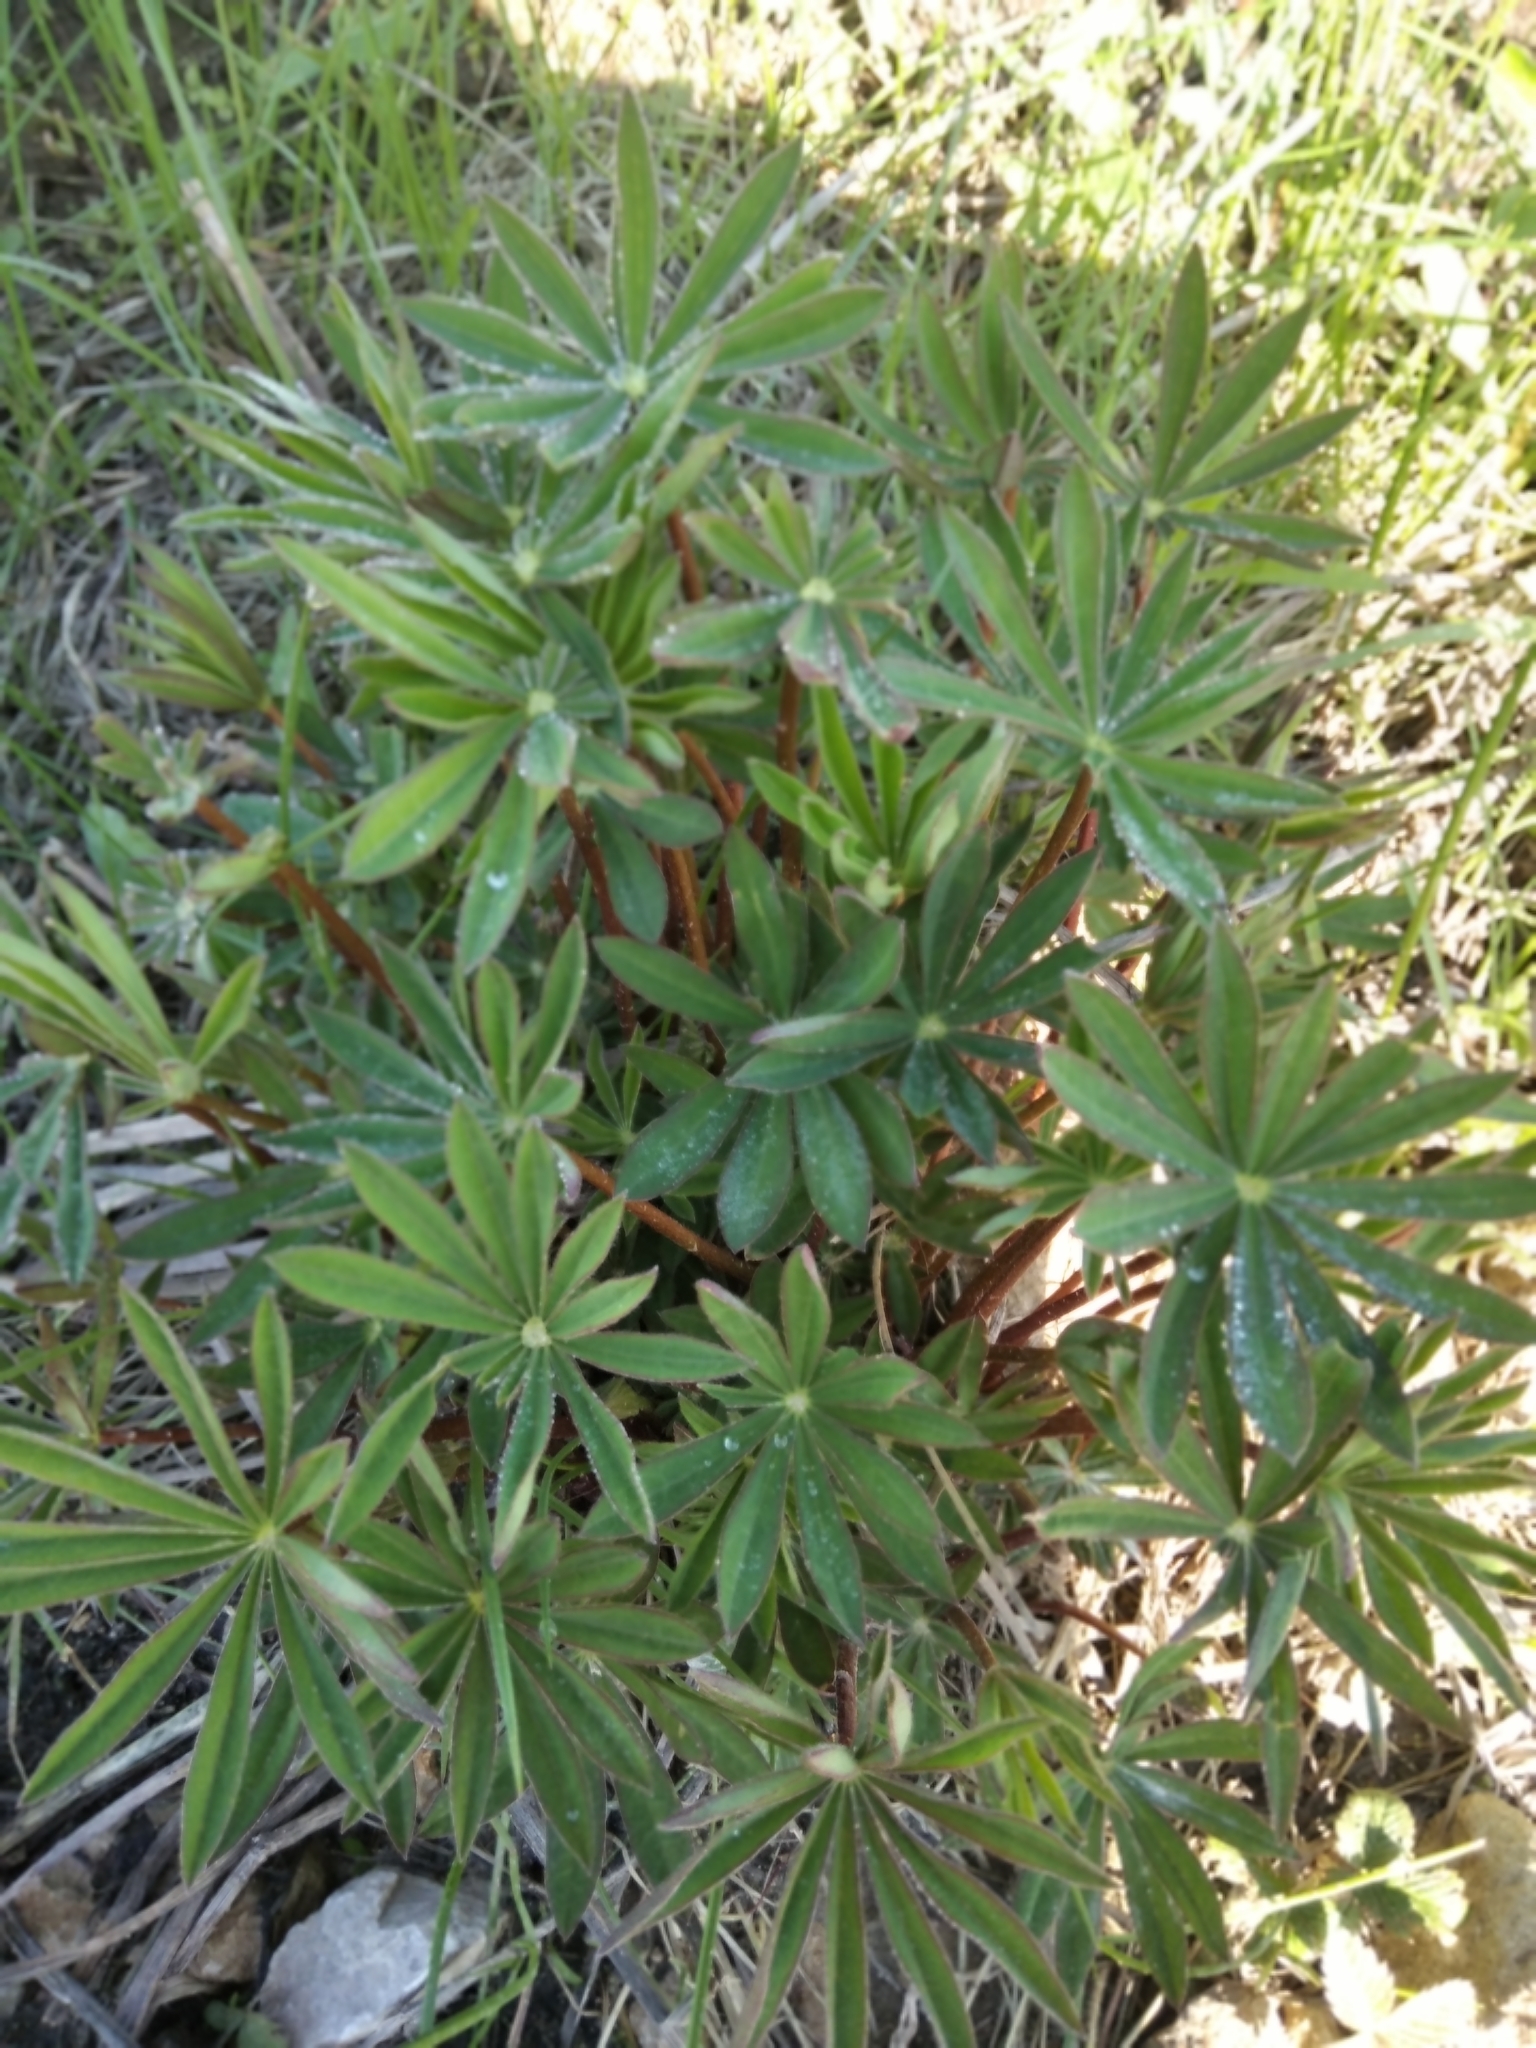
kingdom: Plantae
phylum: Tracheophyta
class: Magnoliopsida
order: Fabales
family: Fabaceae
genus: Lupinus
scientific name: Lupinus polyphyllus
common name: Garden lupin
